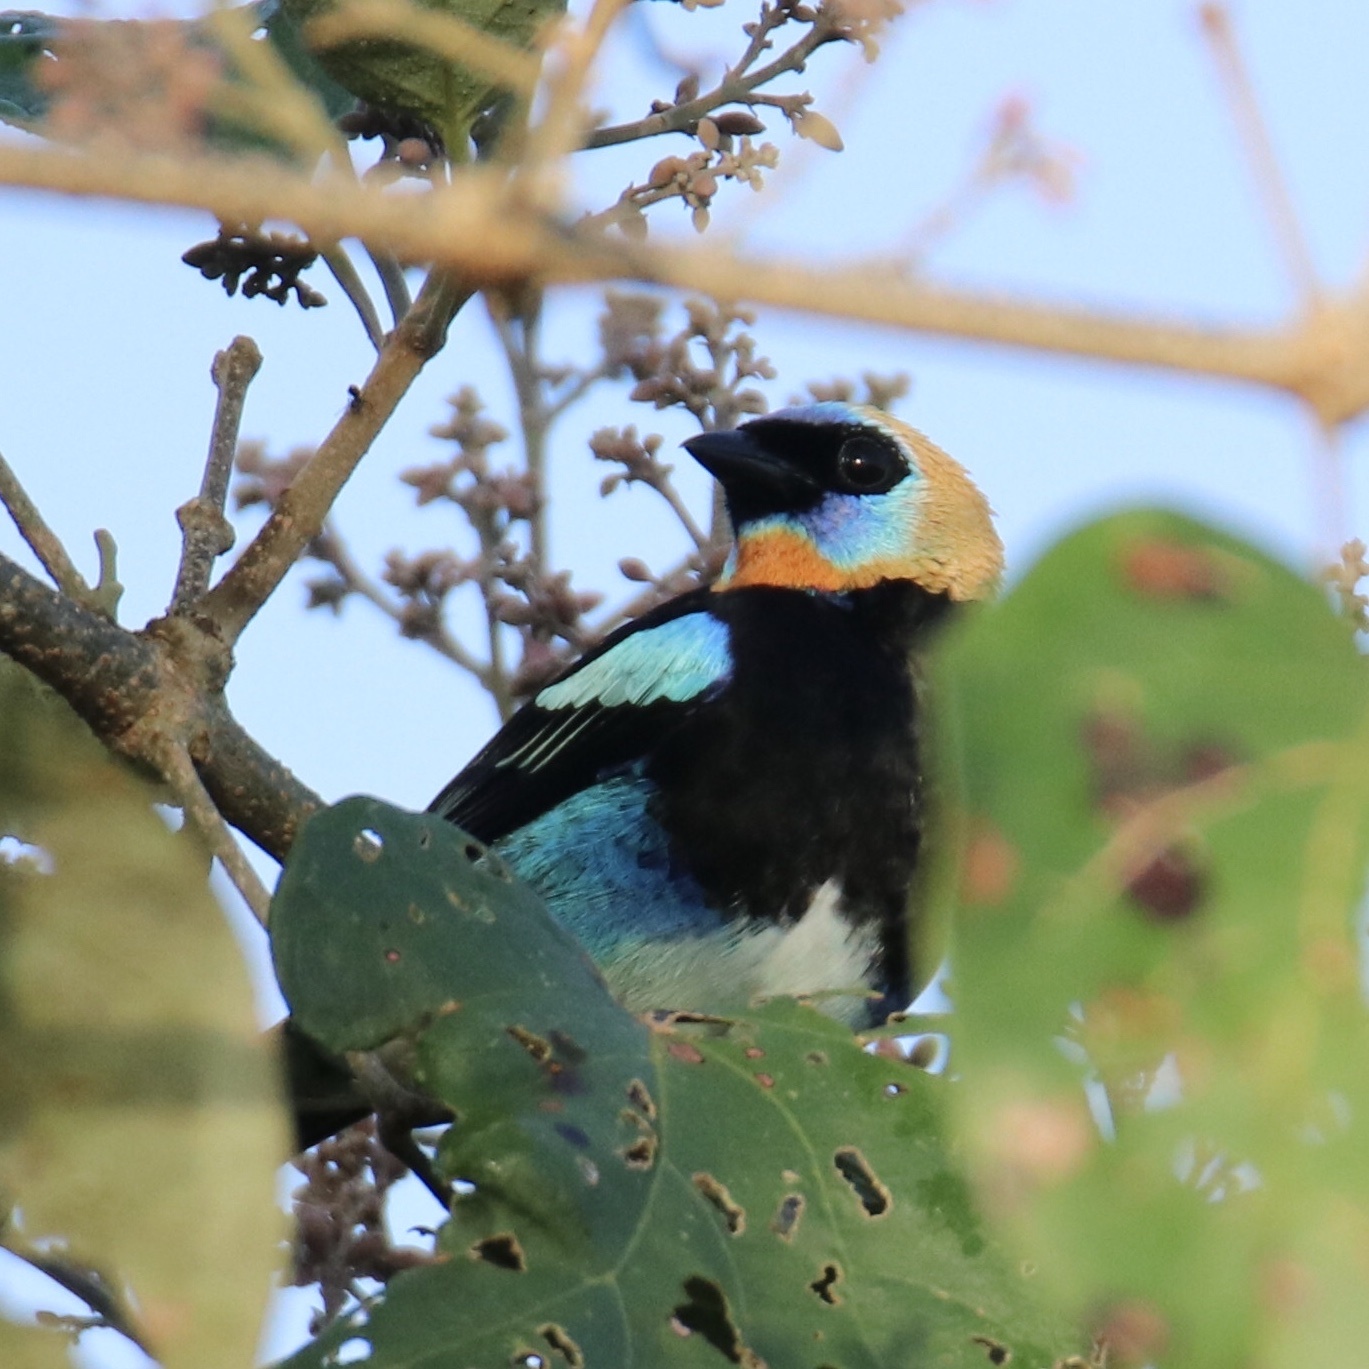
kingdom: Animalia
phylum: Chordata
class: Aves
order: Passeriformes
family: Thraupidae
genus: Stilpnia
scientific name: Stilpnia larvata
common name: Golden-hooded tanager
